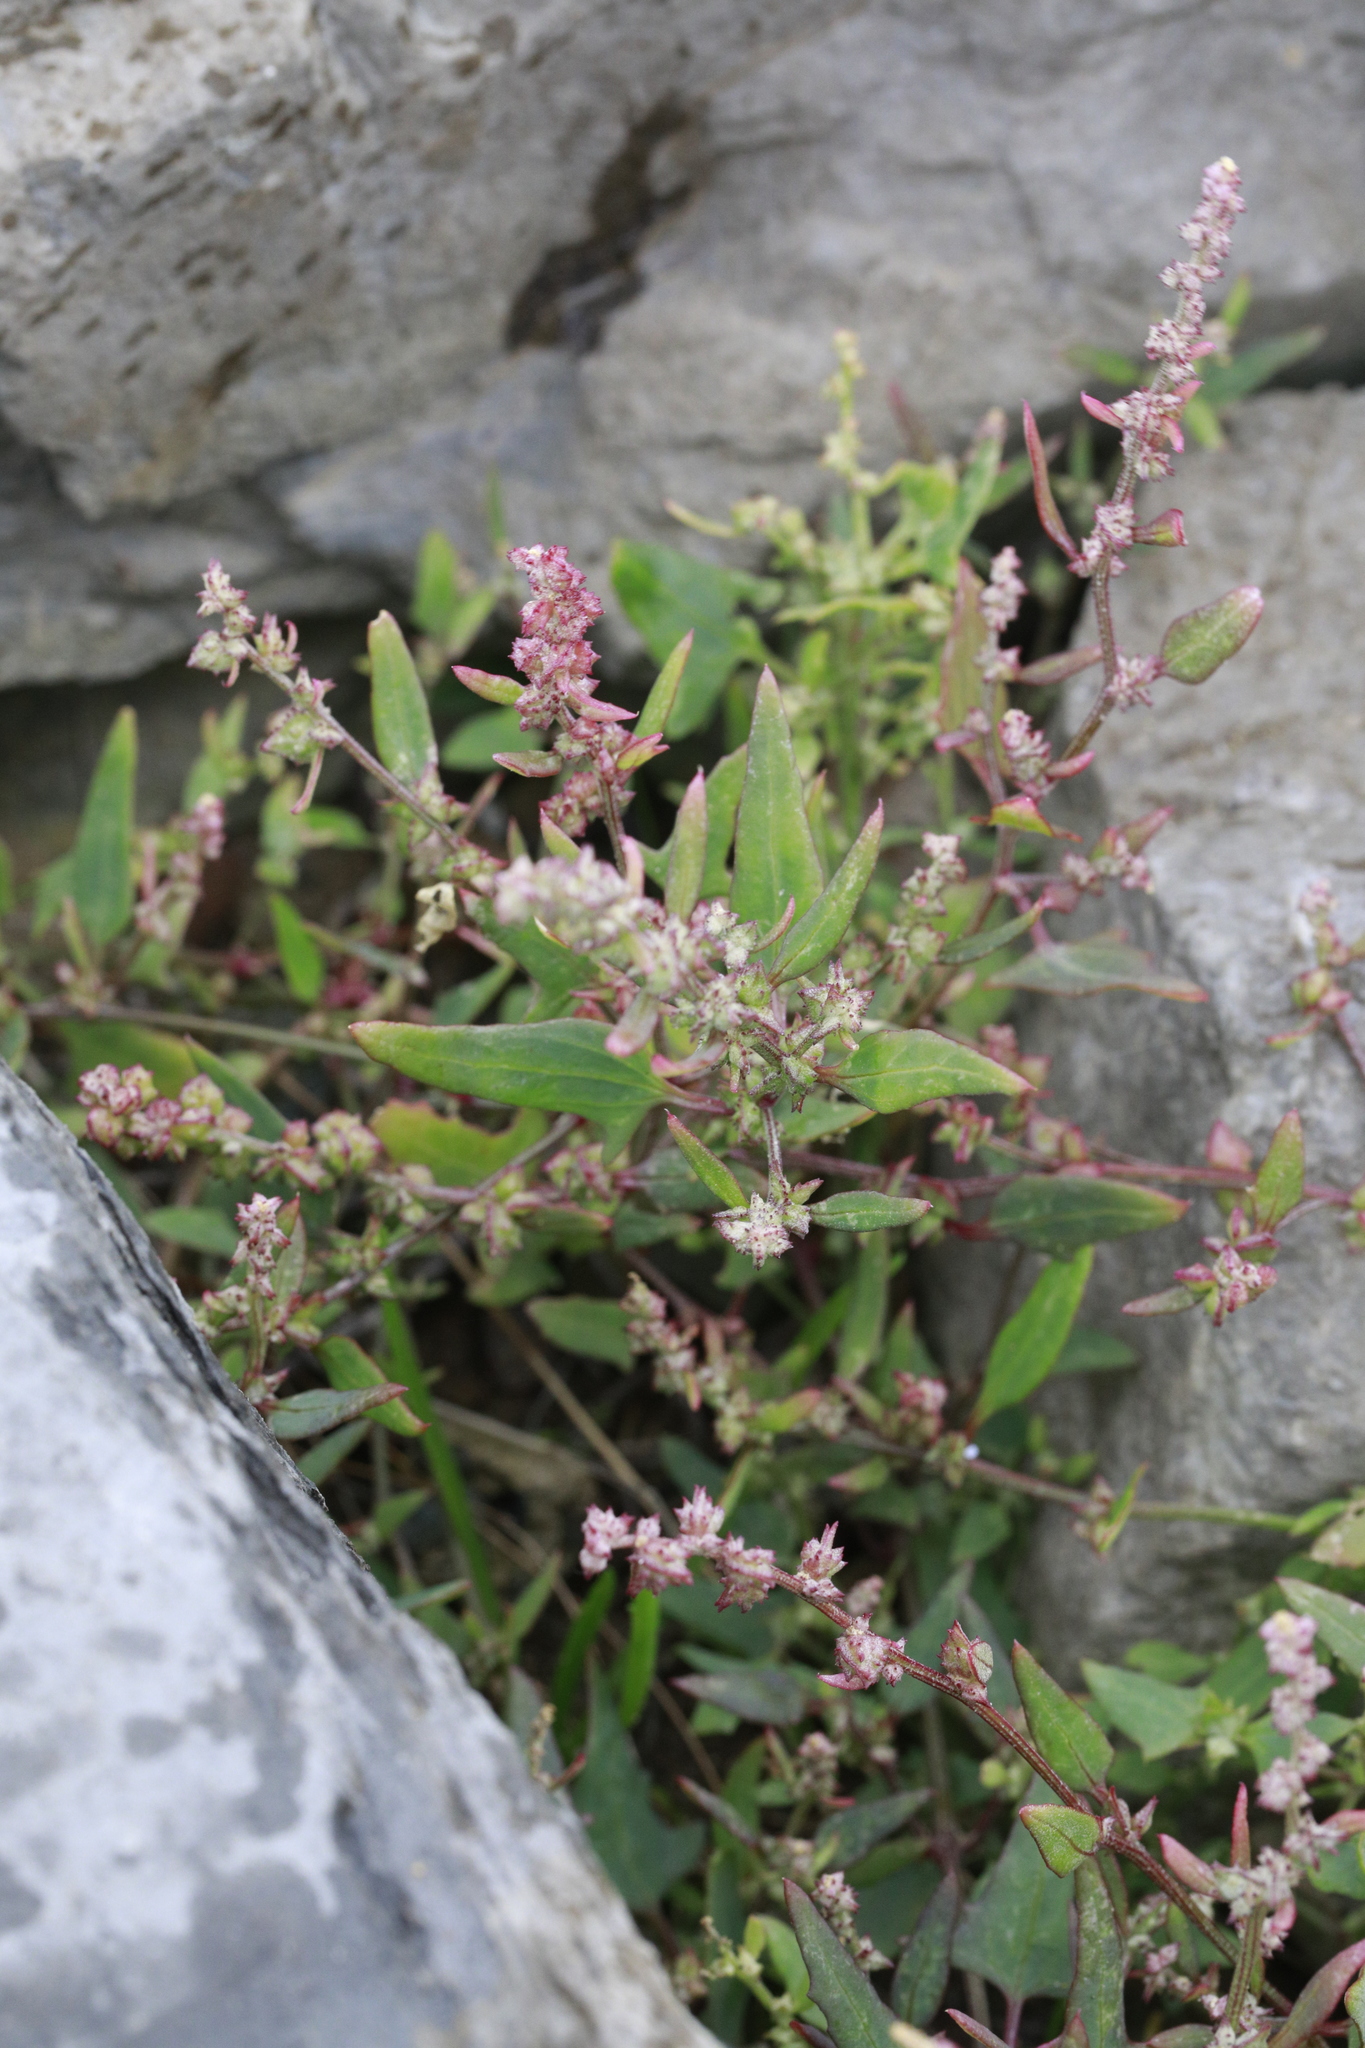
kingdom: Plantae
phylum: Tracheophyta
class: Magnoliopsida
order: Caryophyllales
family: Amaranthaceae
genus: Atriplex
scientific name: Atriplex prostrata
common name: Spear-leaved orache
